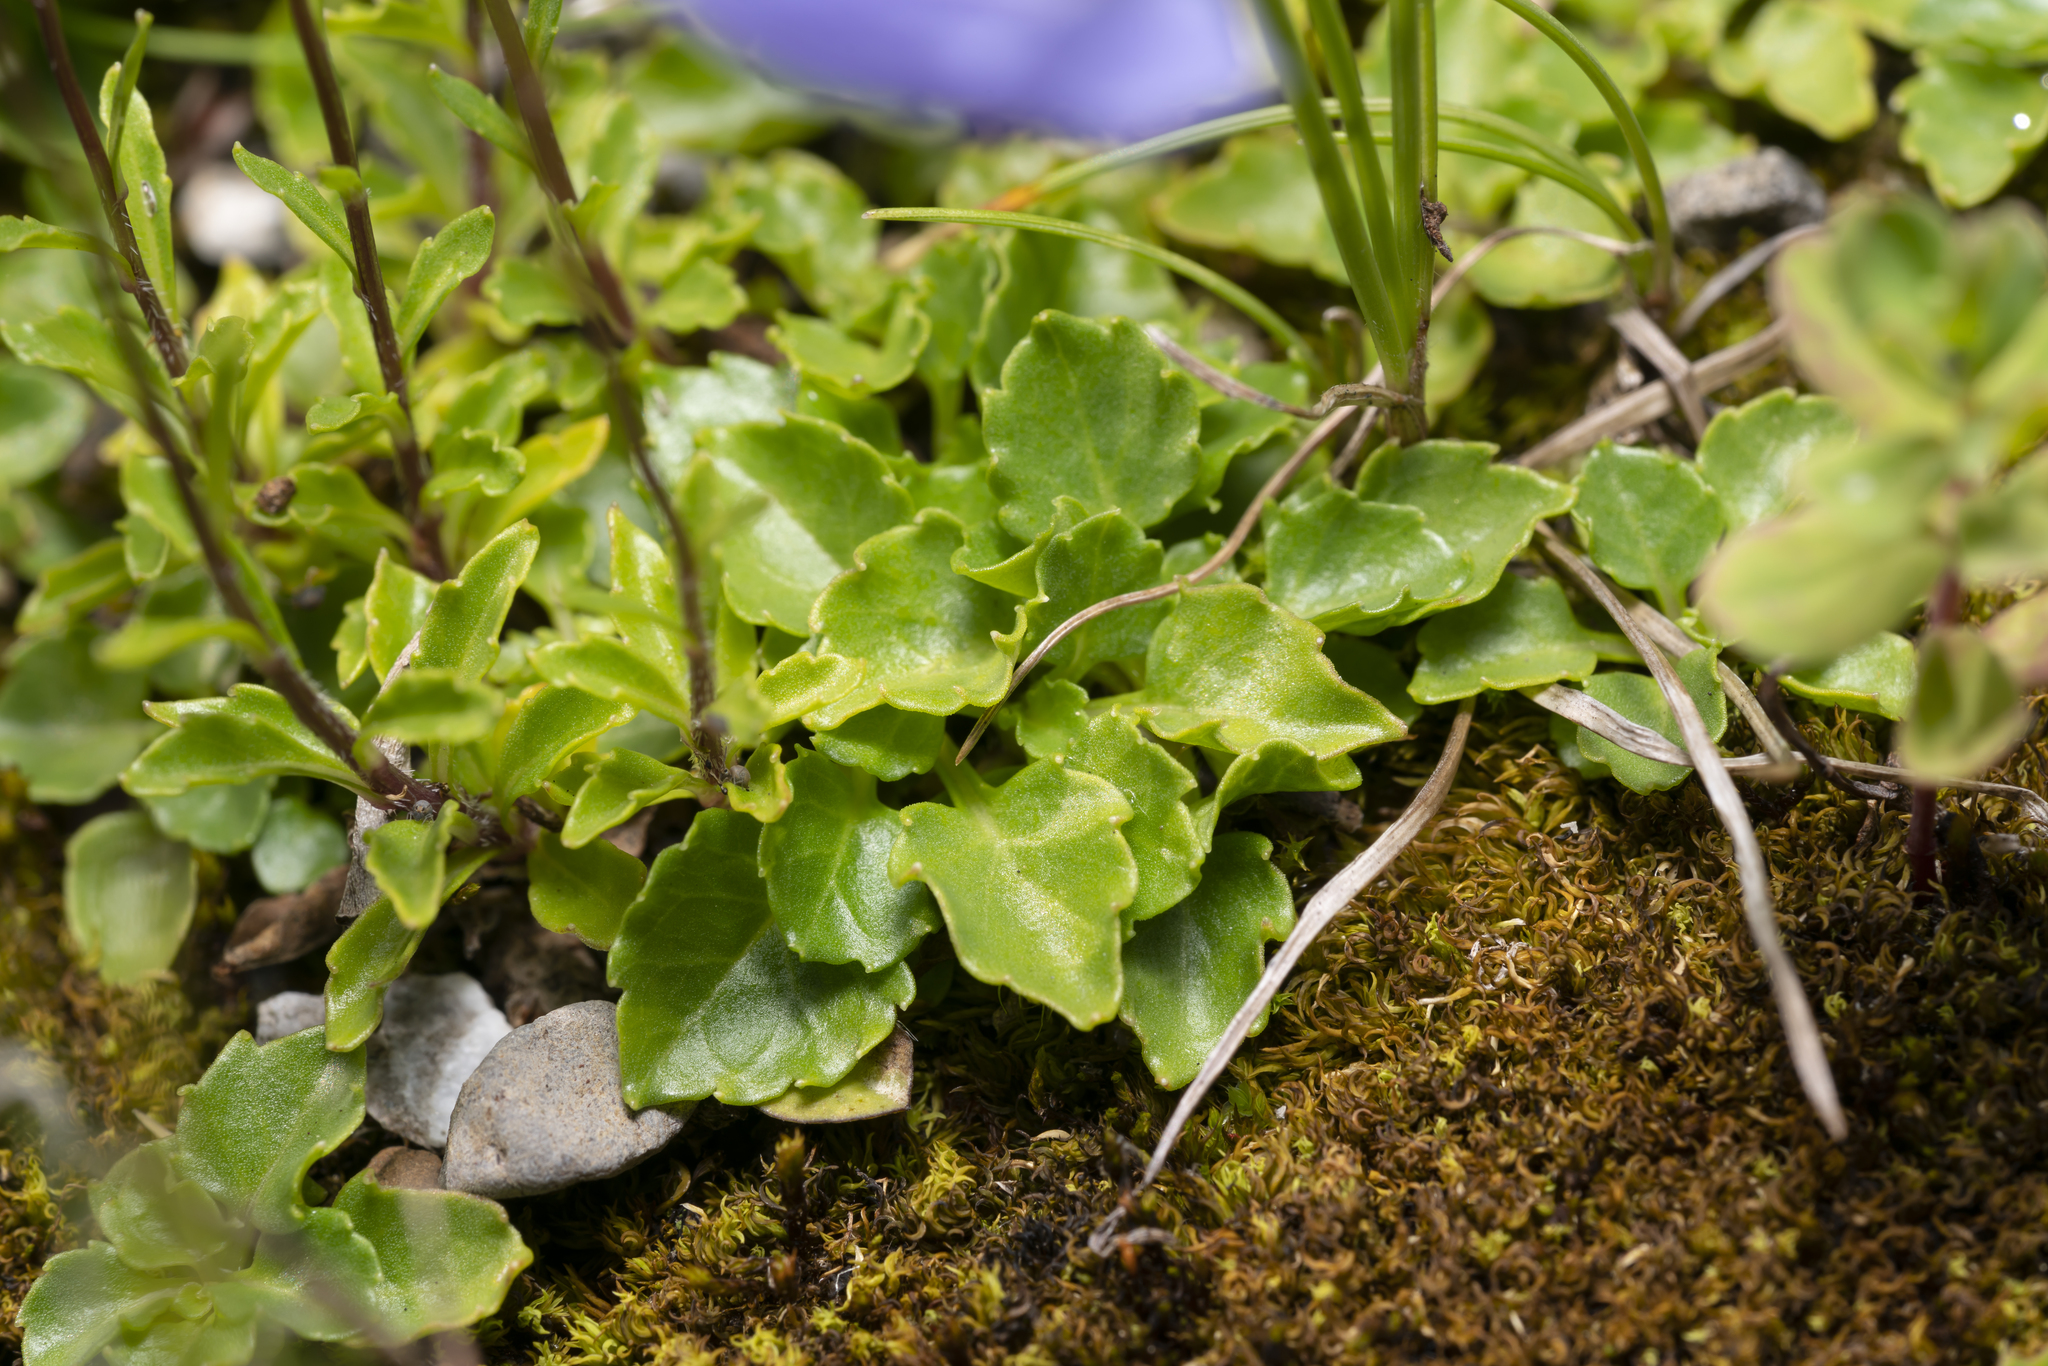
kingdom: Plantae
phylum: Tracheophyta
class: Magnoliopsida
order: Asterales
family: Campanulaceae
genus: Campanula
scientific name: Campanula cochleariifolia
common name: Fairies'-thimbles
